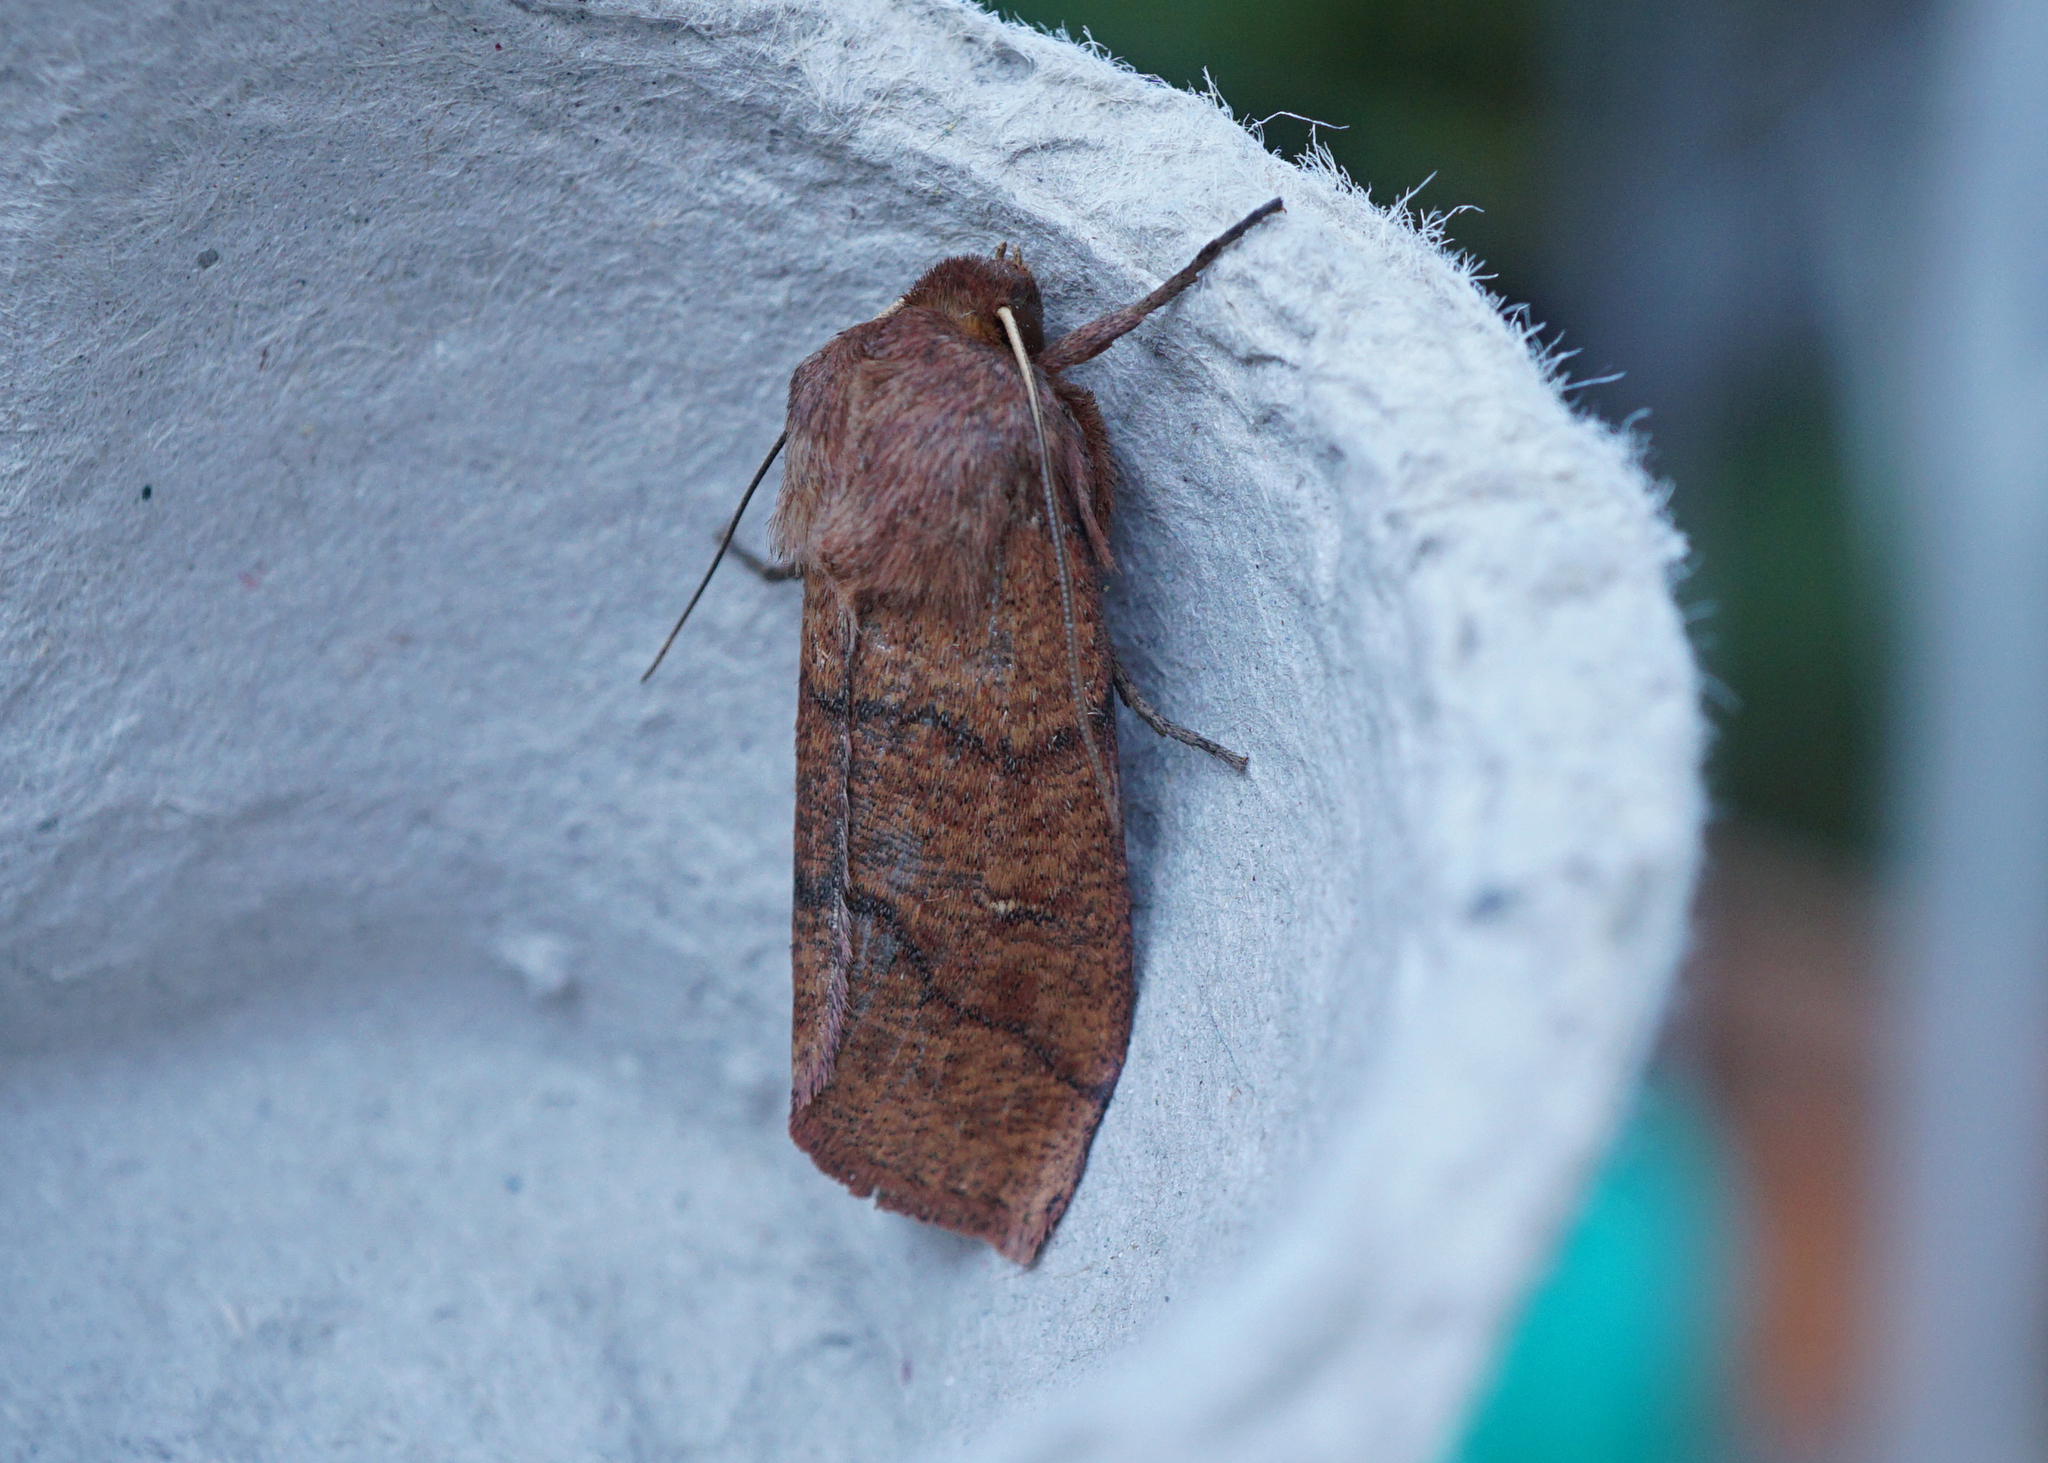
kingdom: Animalia
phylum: Arthropoda
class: Insecta
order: Lepidoptera
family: Noctuidae
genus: Mythimna
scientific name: Mythimna turca
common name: Double line
